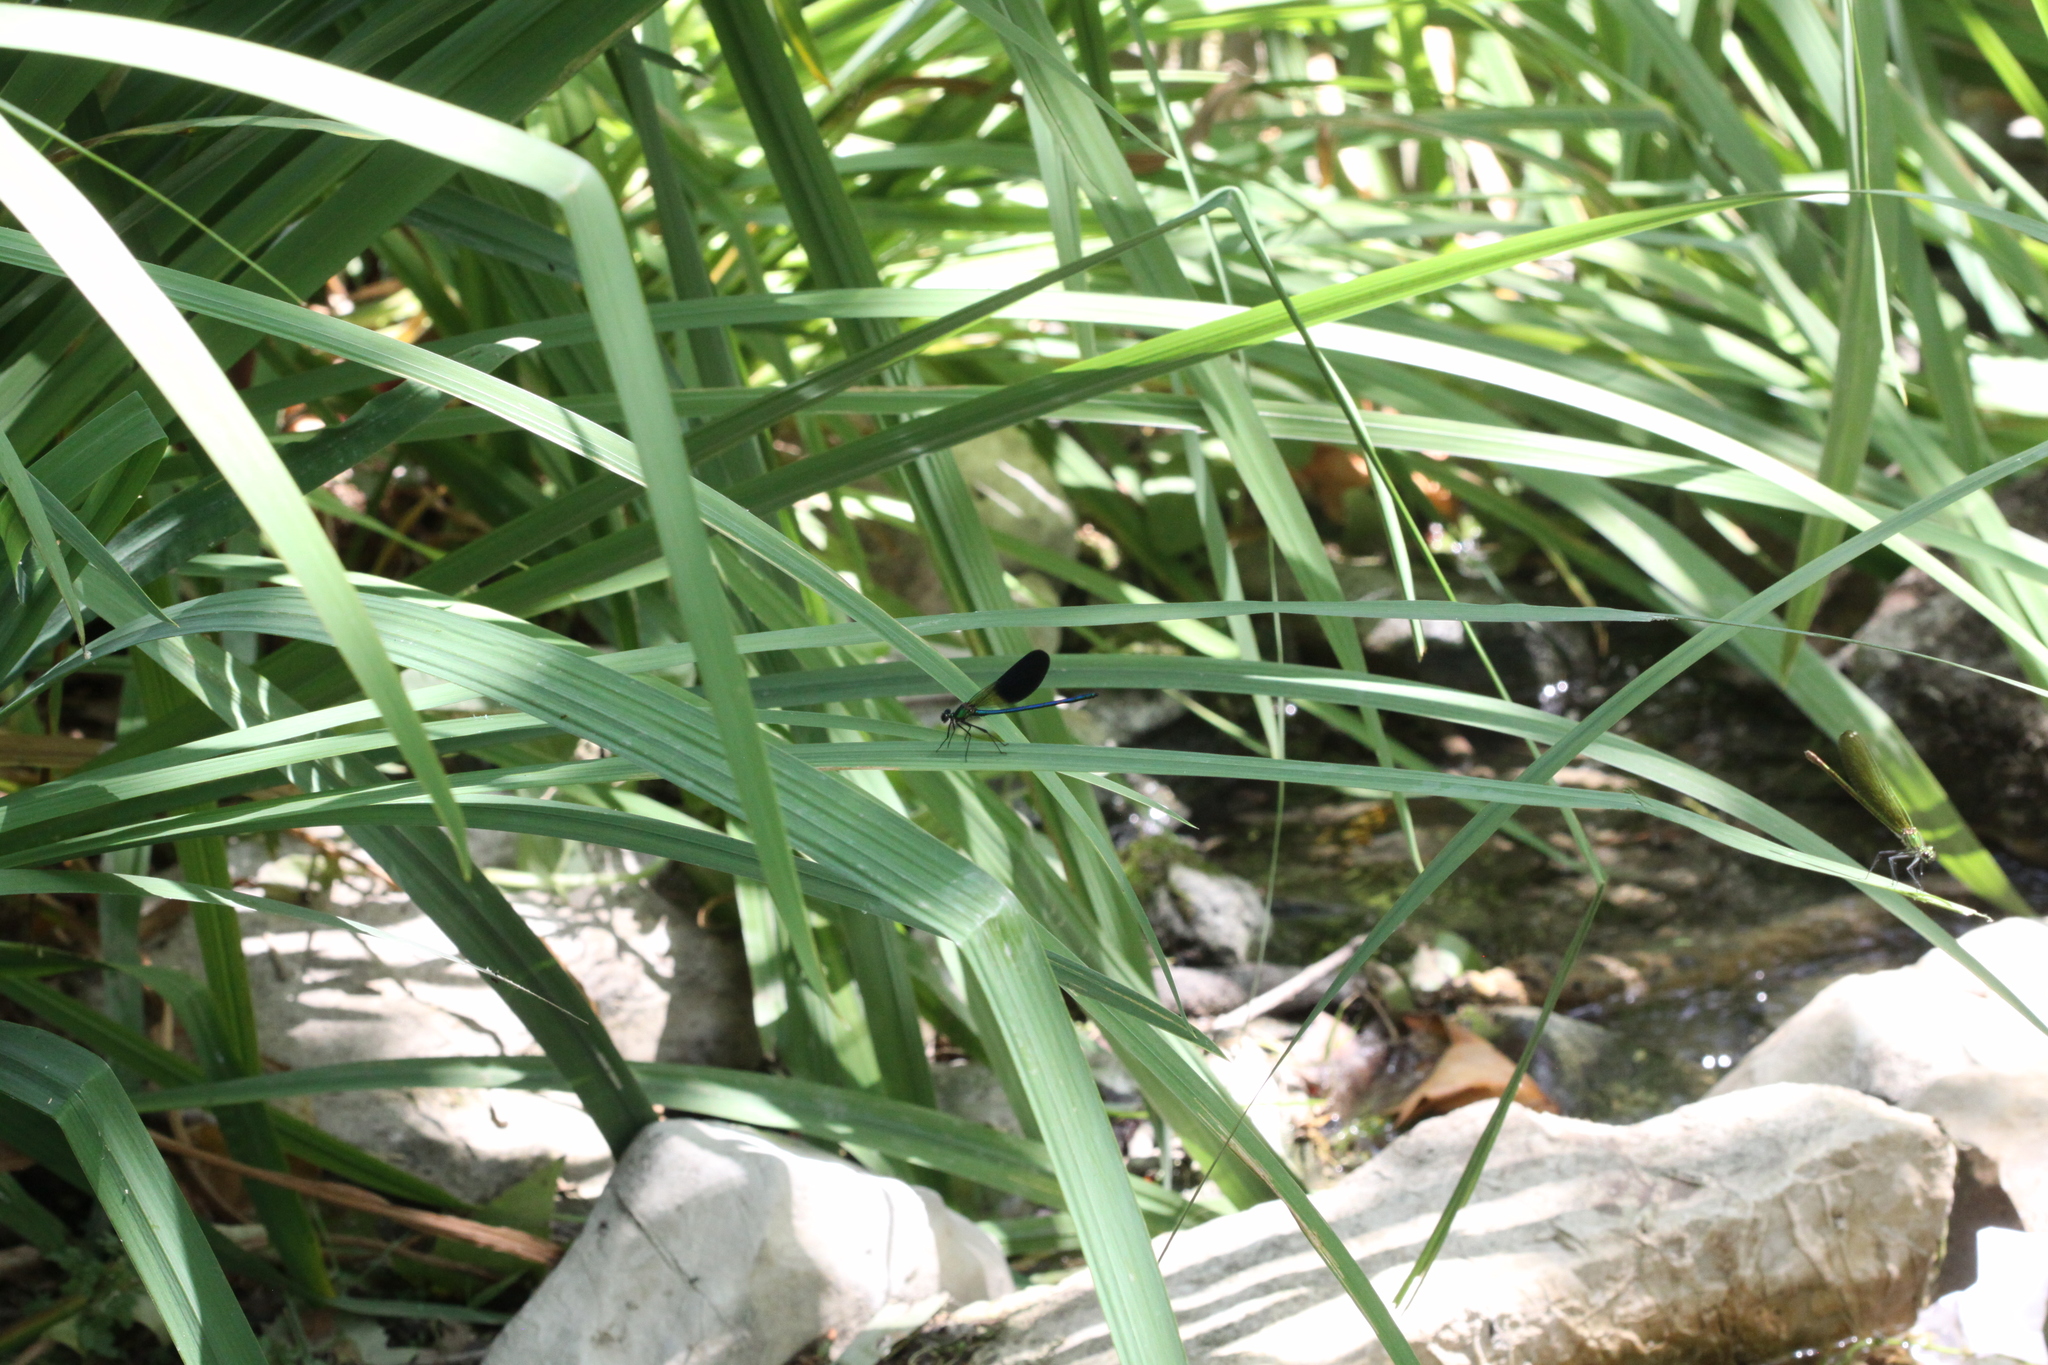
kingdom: Animalia
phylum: Arthropoda
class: Insecta
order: Odonata
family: Calopterygidae
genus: Calopteryx
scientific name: Calopteryx xanthostoma
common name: Western demoiselle
